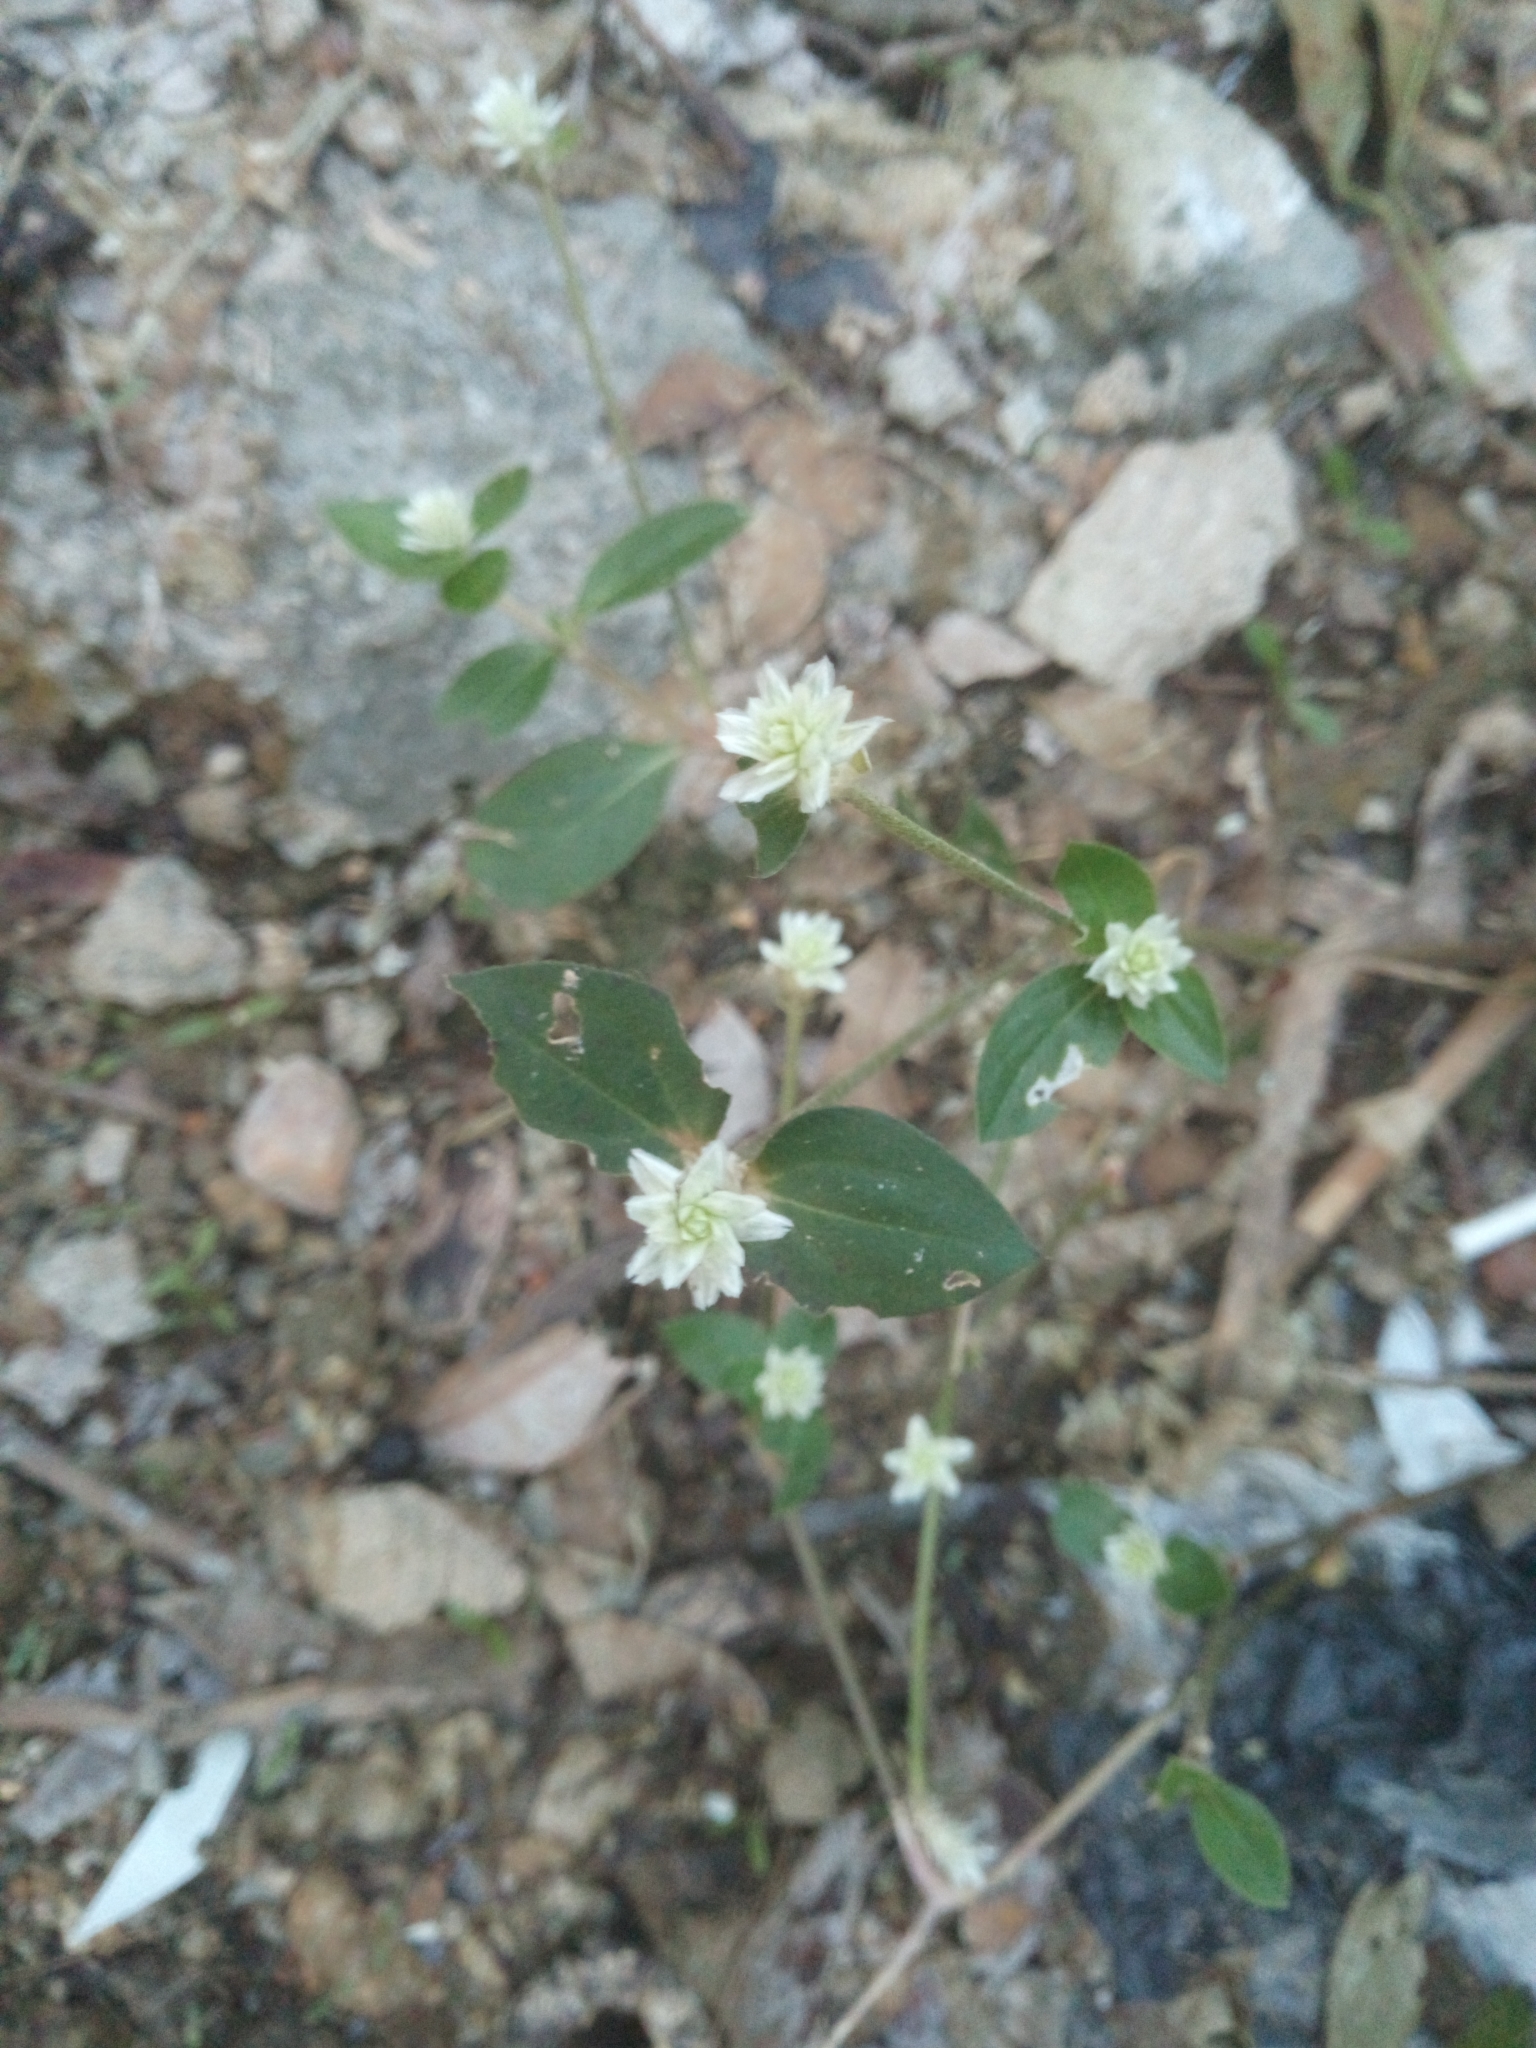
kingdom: Plantae
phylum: Tracheophyta
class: Magnoliopsida
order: Caryophyllales
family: Amaranthaceae
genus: Gomphrena
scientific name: Gomphrena celosioides
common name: Gomphrena-weed
